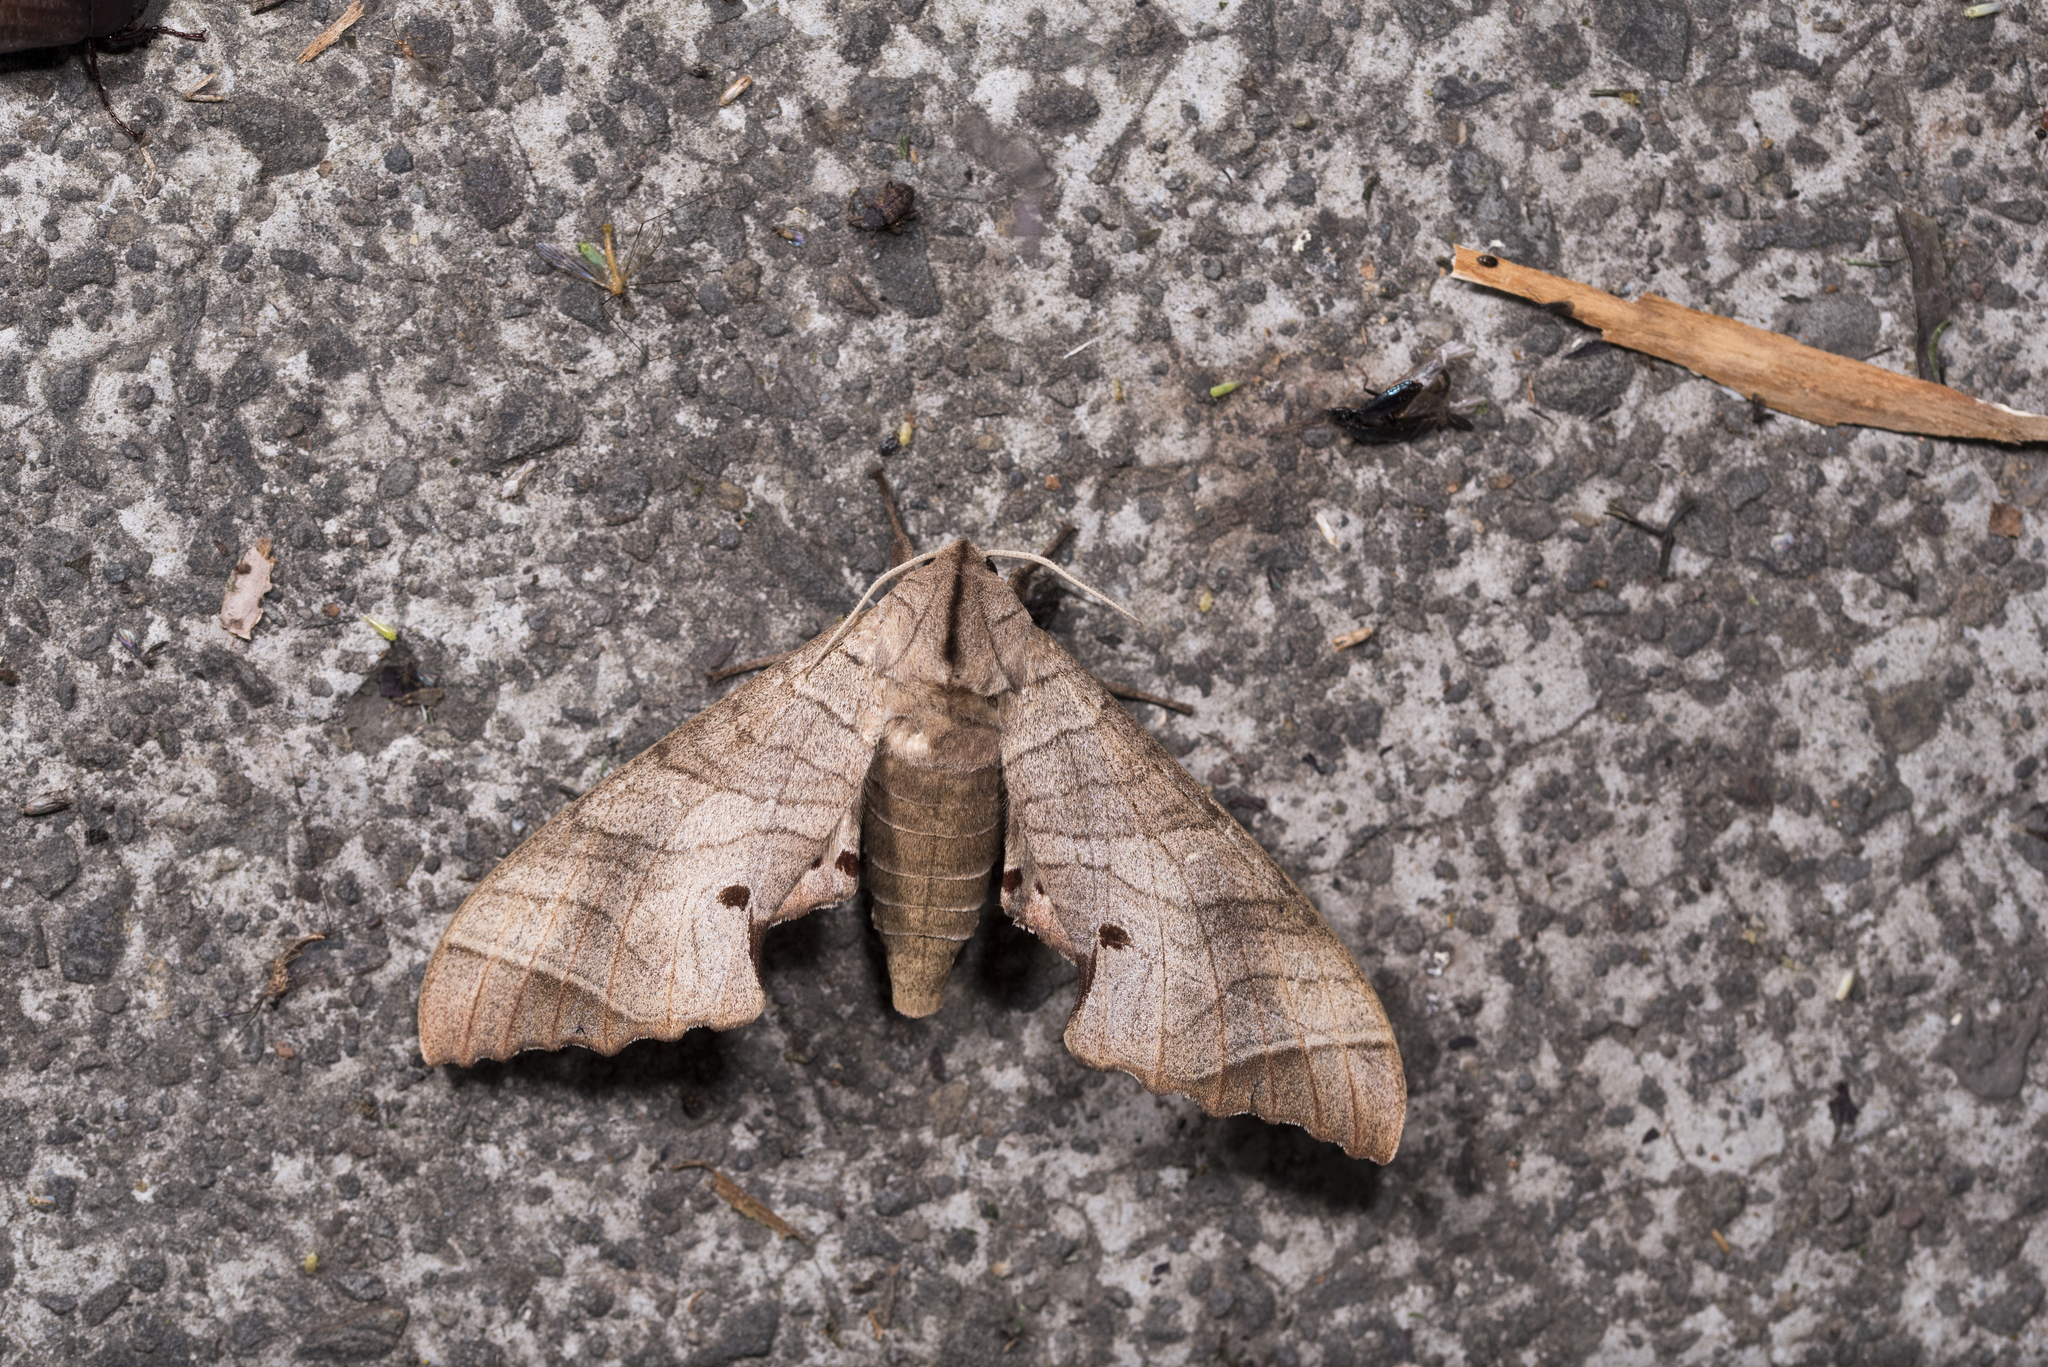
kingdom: Animalia
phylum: Arthropoda
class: Insecta
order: Lepidoptera
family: Sphingidae
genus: Marumba
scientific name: Marumba dyras
